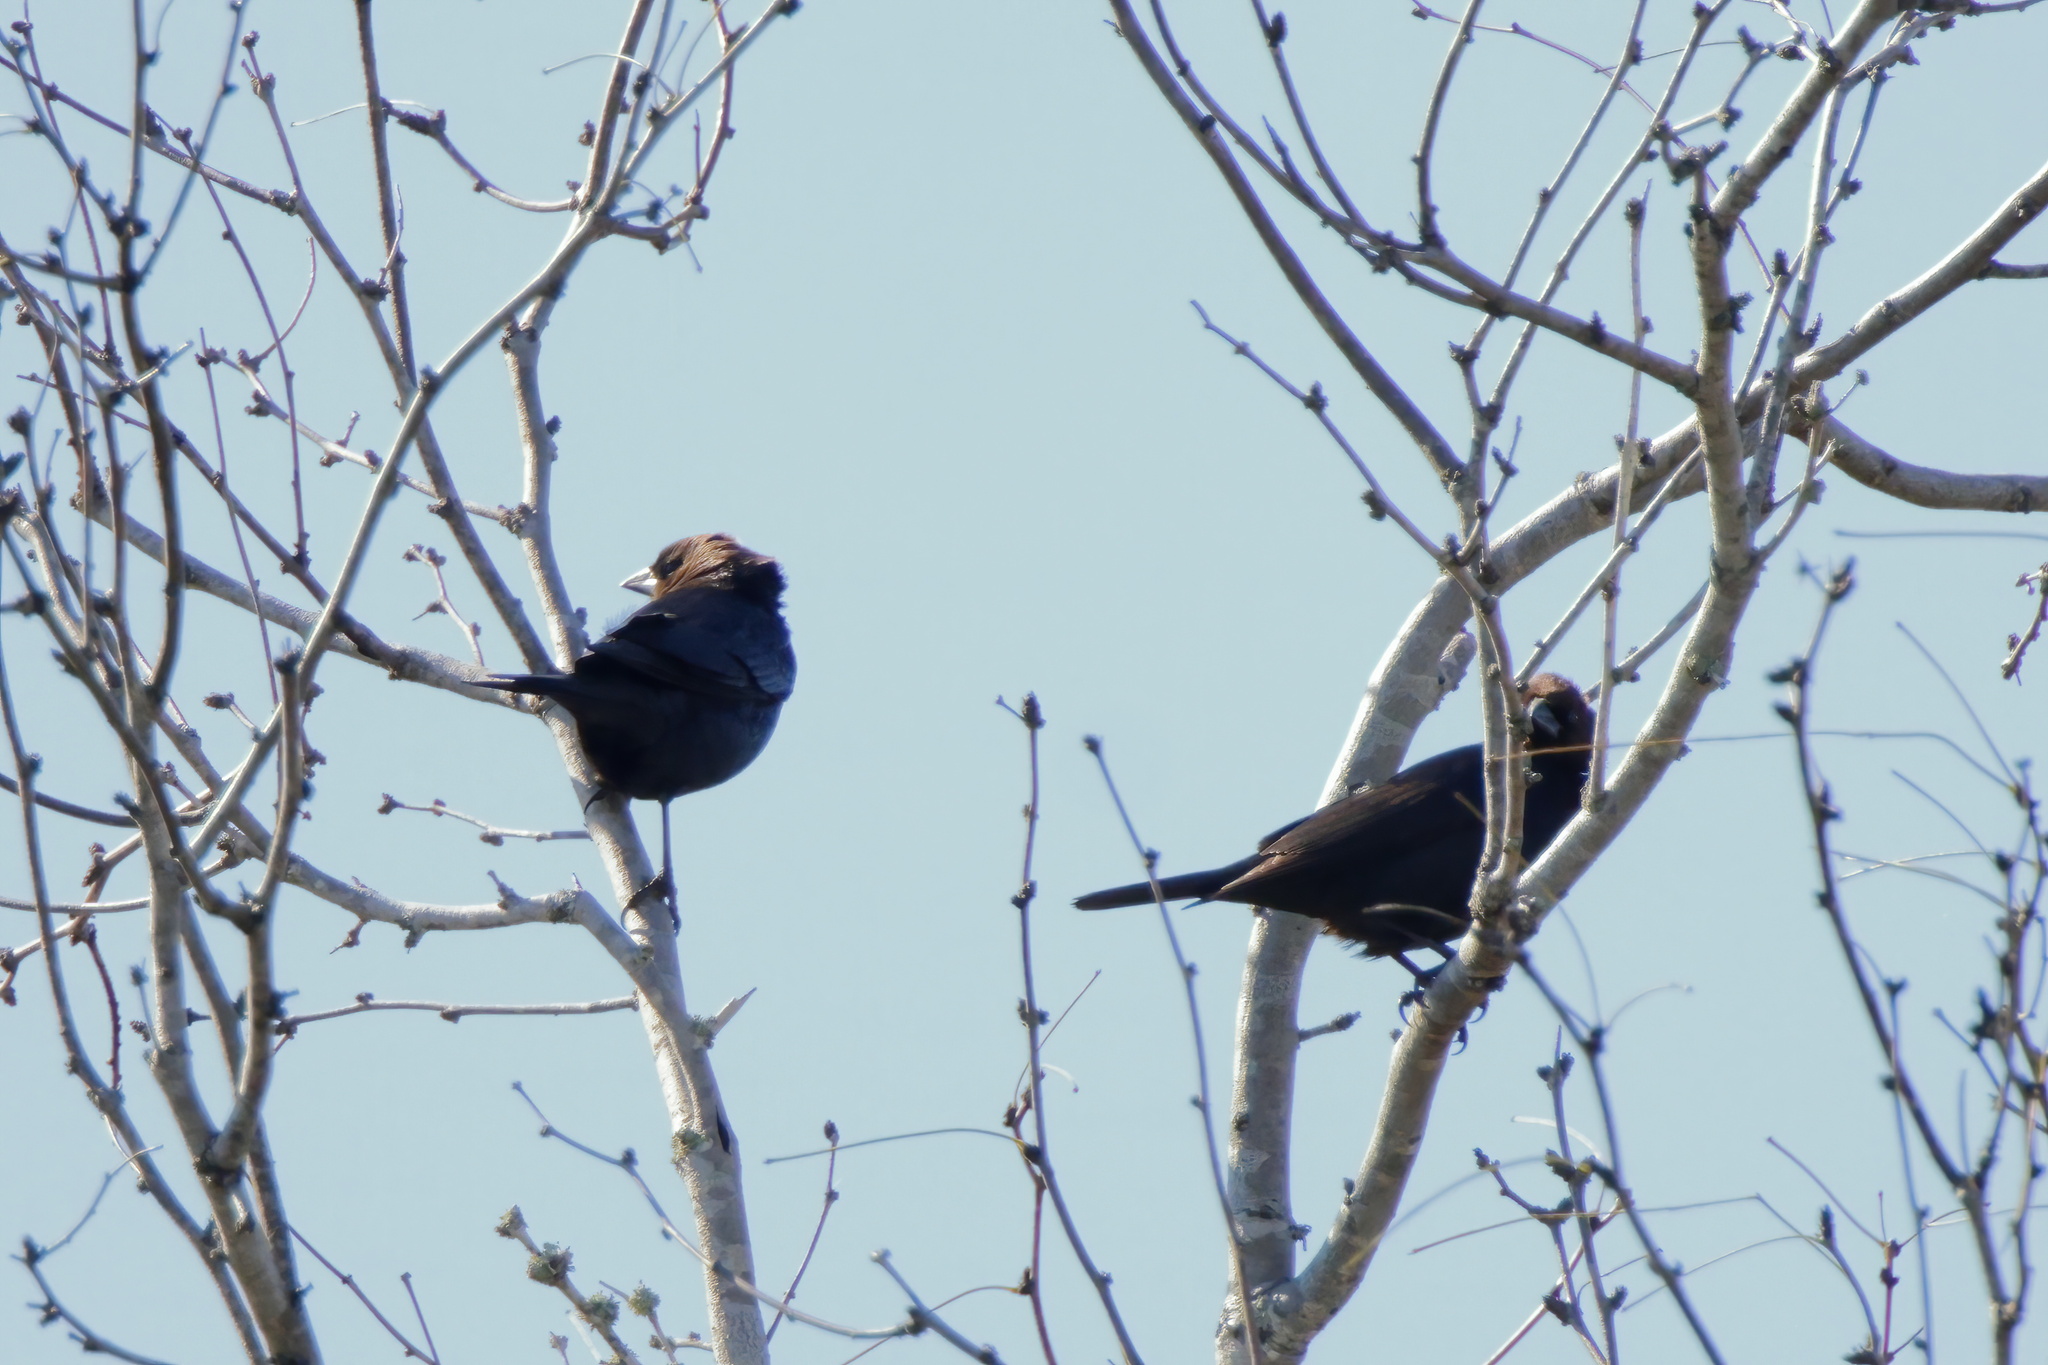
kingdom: Animalia
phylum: Chordata
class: Aves
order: Passeriformes
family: Icteridae
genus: Molothrus
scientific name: Molothrus ater
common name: Brown-headed cowbird
